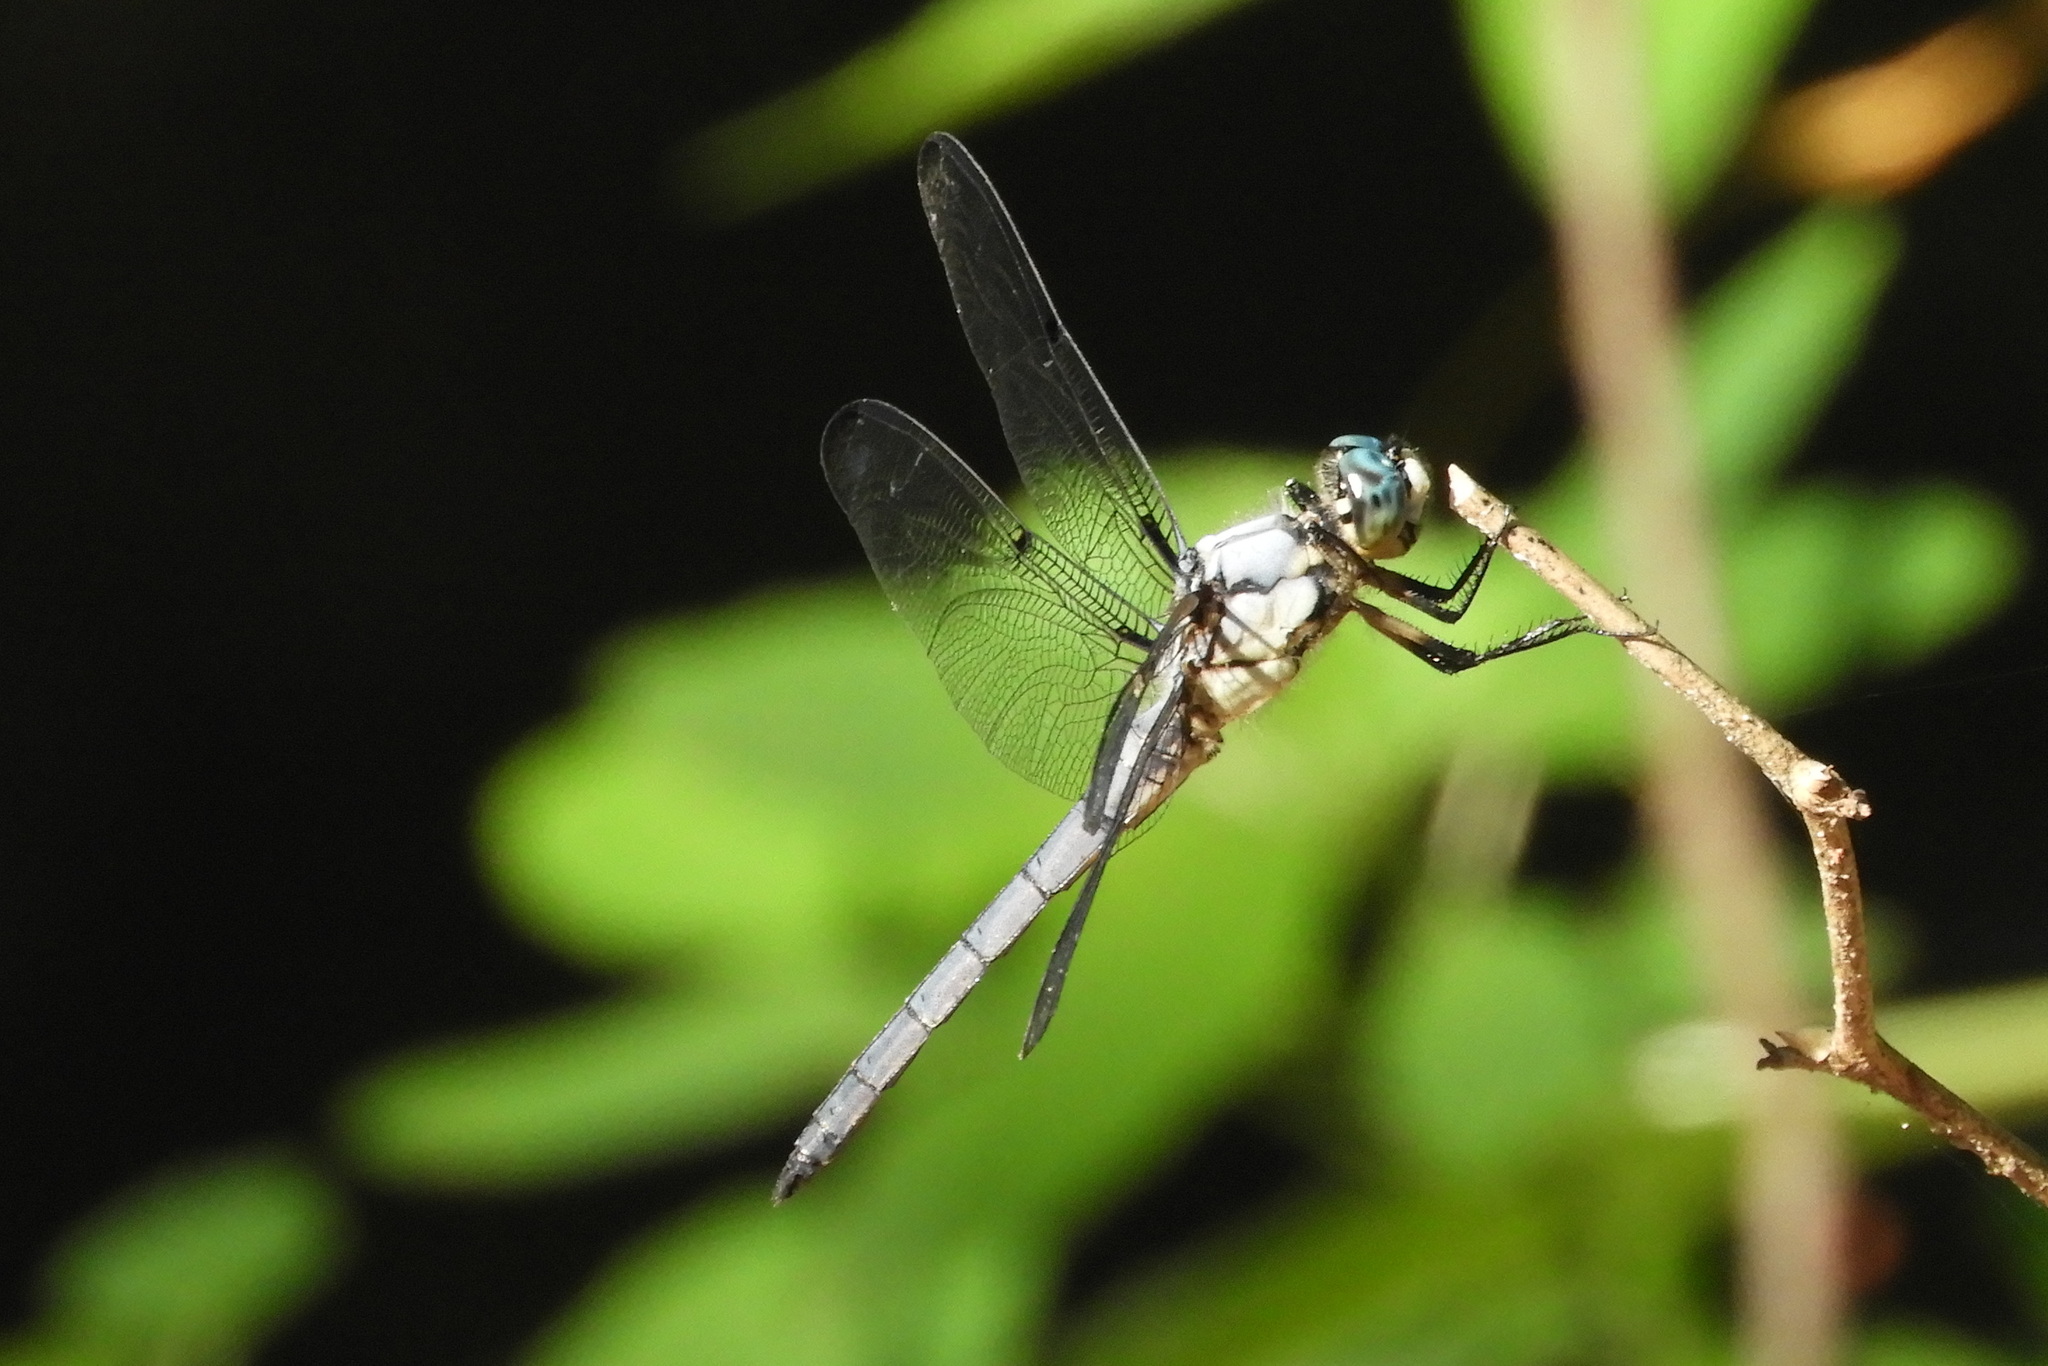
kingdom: Animalia
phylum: Arthropoda
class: Insecta
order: Odonata
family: Libellulidae
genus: Libellula
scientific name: Libellula vibrans
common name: Great blue skimmer
